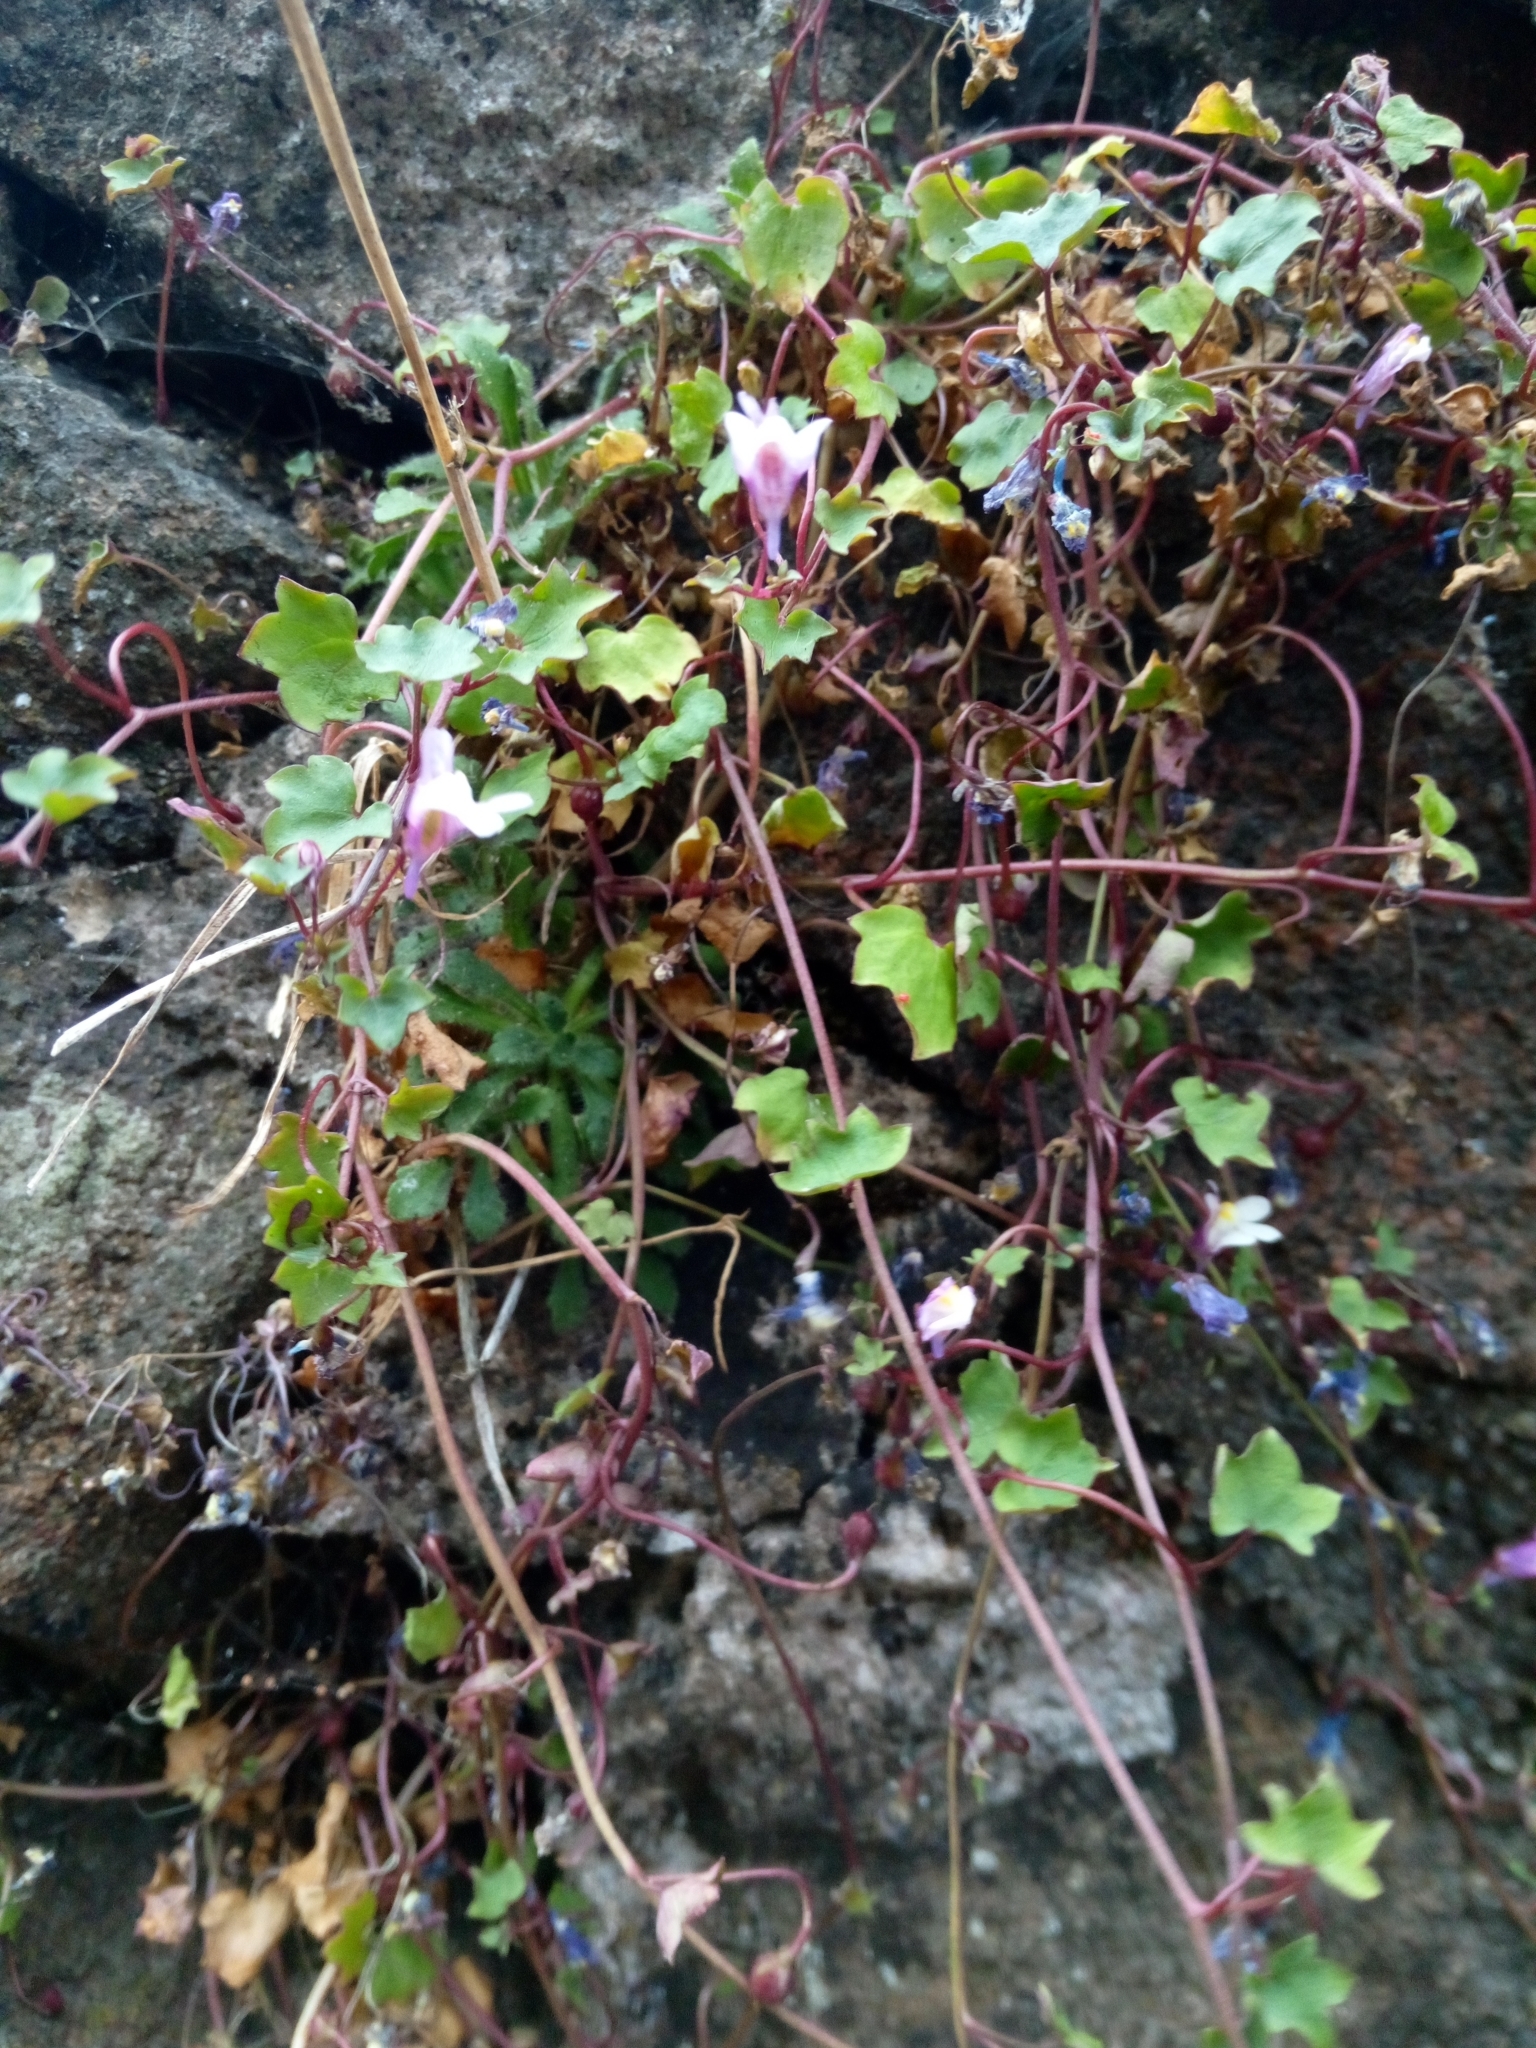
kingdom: Plantae
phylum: Tracheophyta
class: Magnoliopsida
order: Lamiales
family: Plantaginaceae
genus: Cymbalaria
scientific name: Cymbalaria muralis
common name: Ivy-leaved toadflax
